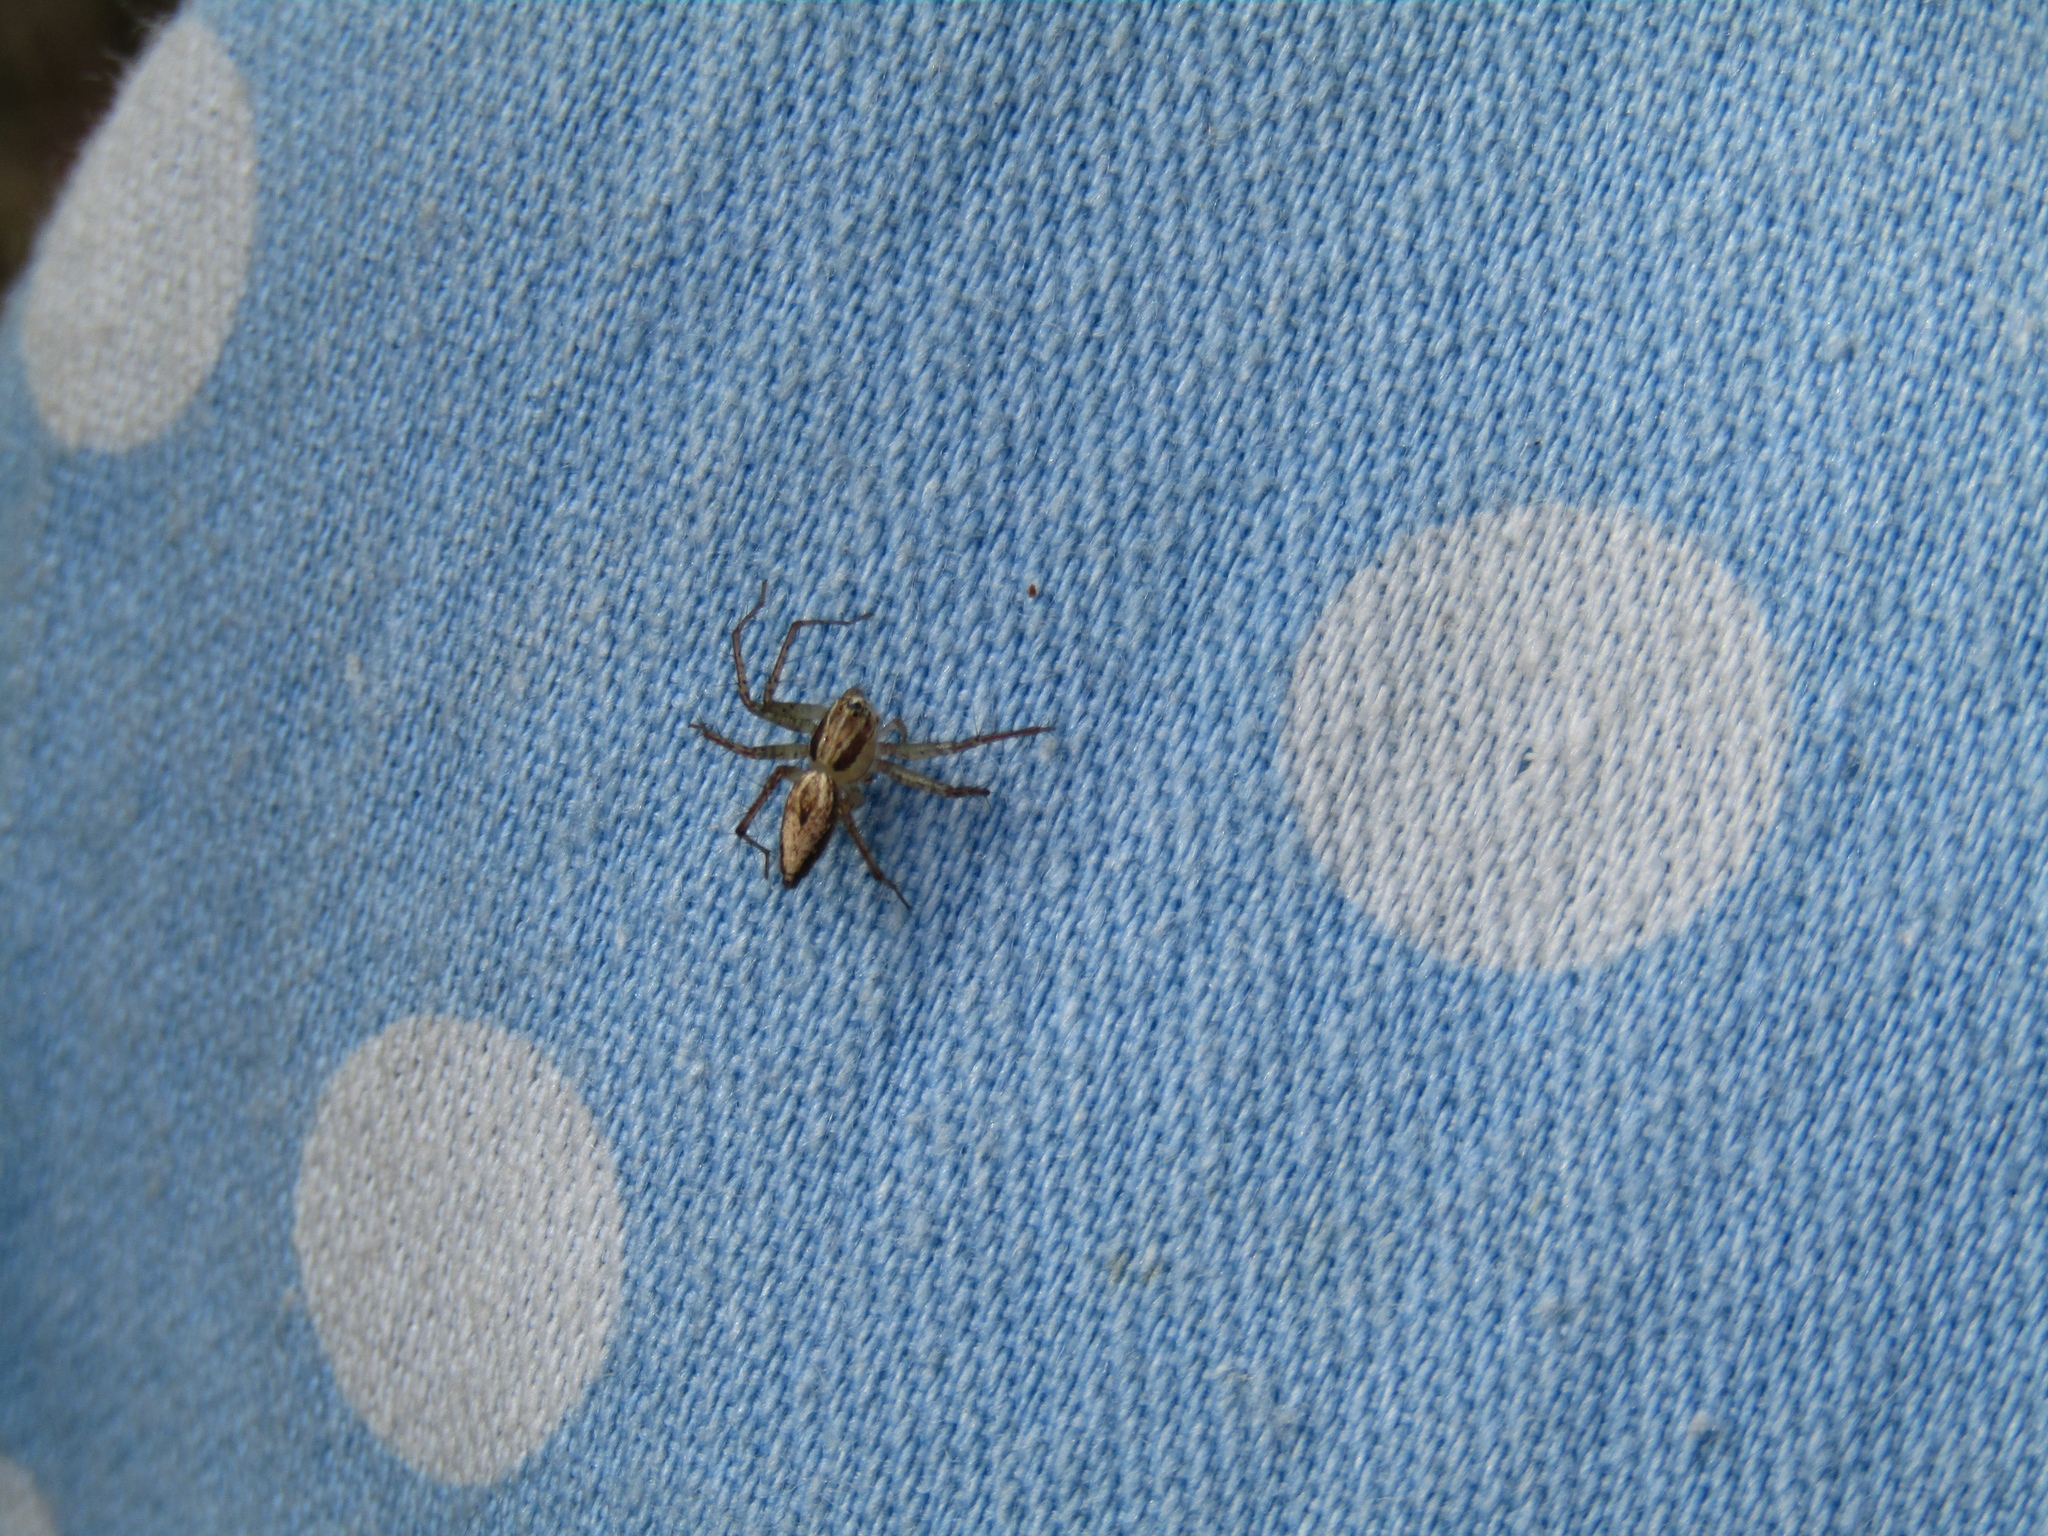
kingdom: Animalia
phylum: Arthropoda
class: Arachnida
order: Araneae
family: Oxyopidae
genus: Oxyopes
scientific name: Oxyopes salticus
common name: Lynx spiders
